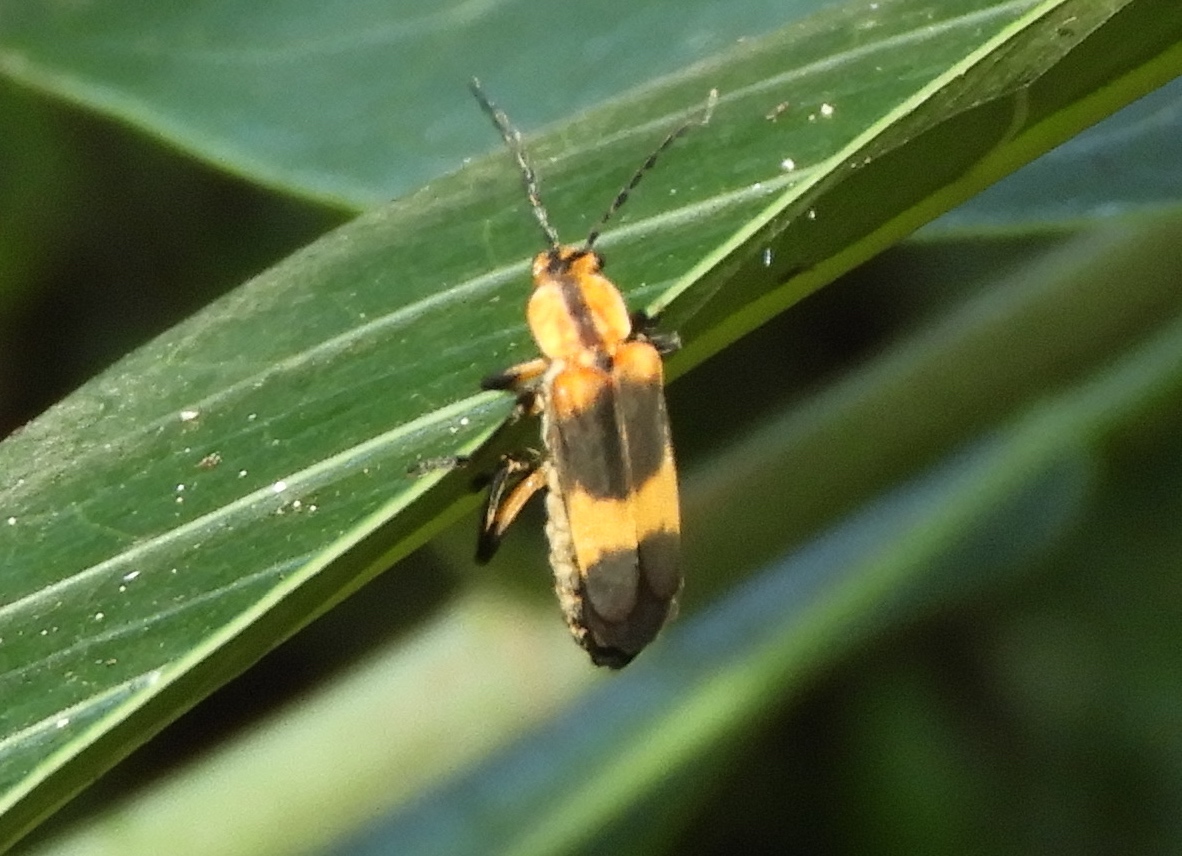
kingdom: Animalia
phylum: Arthropoda
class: Insecta
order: Coleoptera
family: Cantharidae
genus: Daiphron
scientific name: Daiphron proteum
